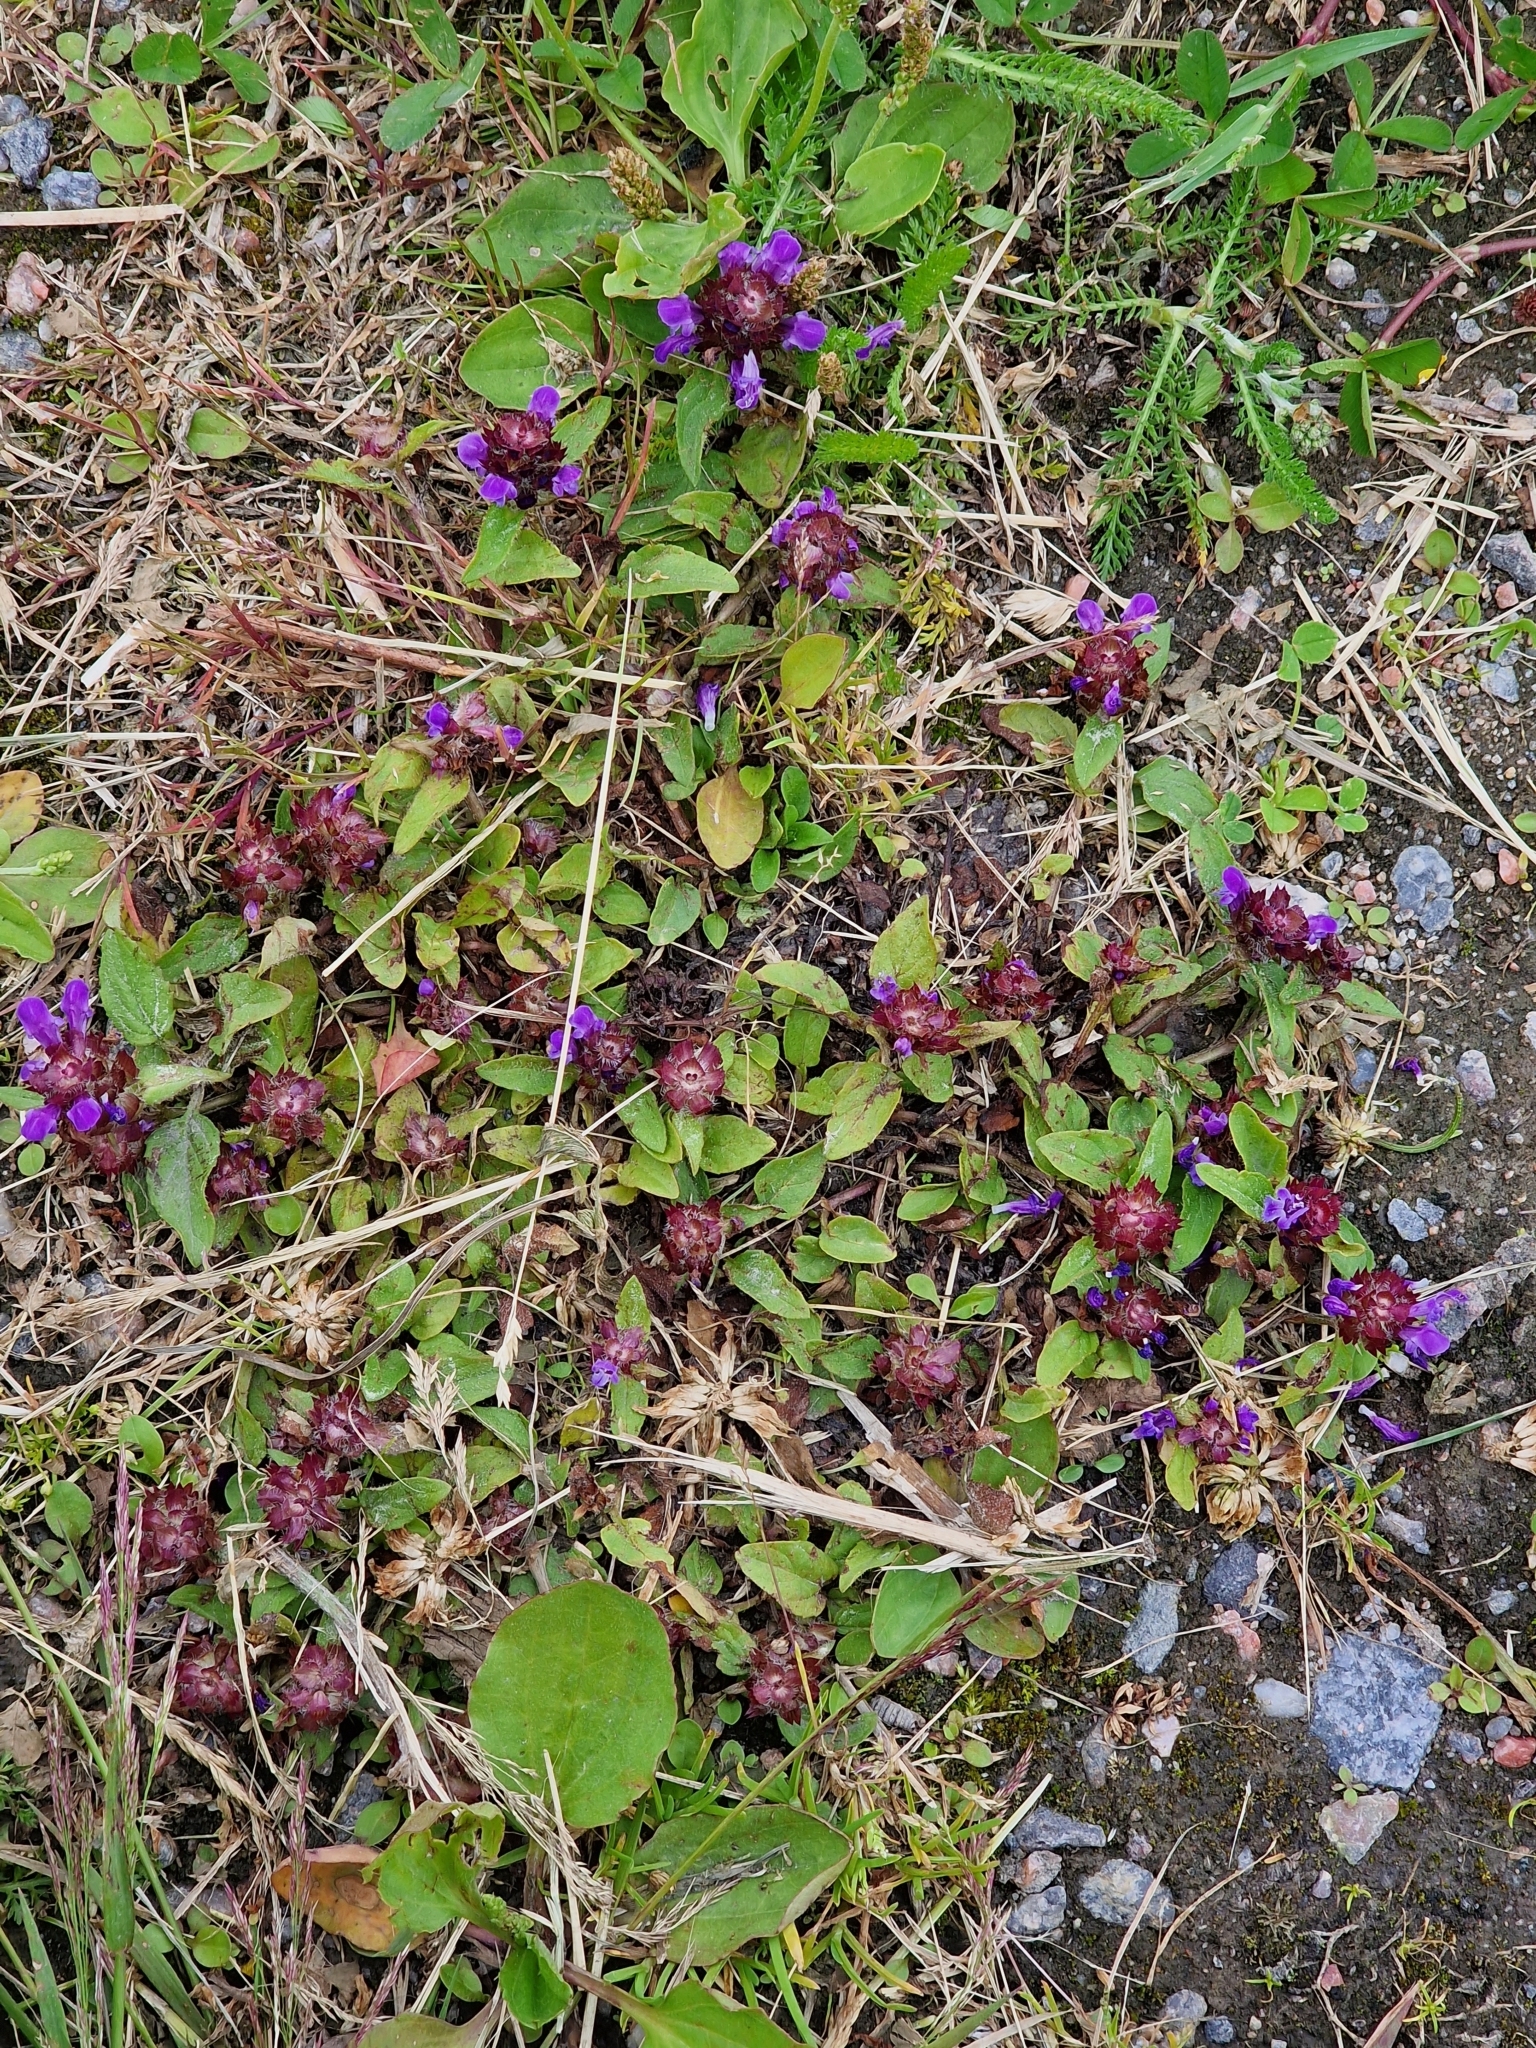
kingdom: Plantae
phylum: Tracheophyta
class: Magnoliopsida
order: Lamiales
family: Lamiaceae
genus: Prunella
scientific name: Prunella vulgaris
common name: Heal-all
